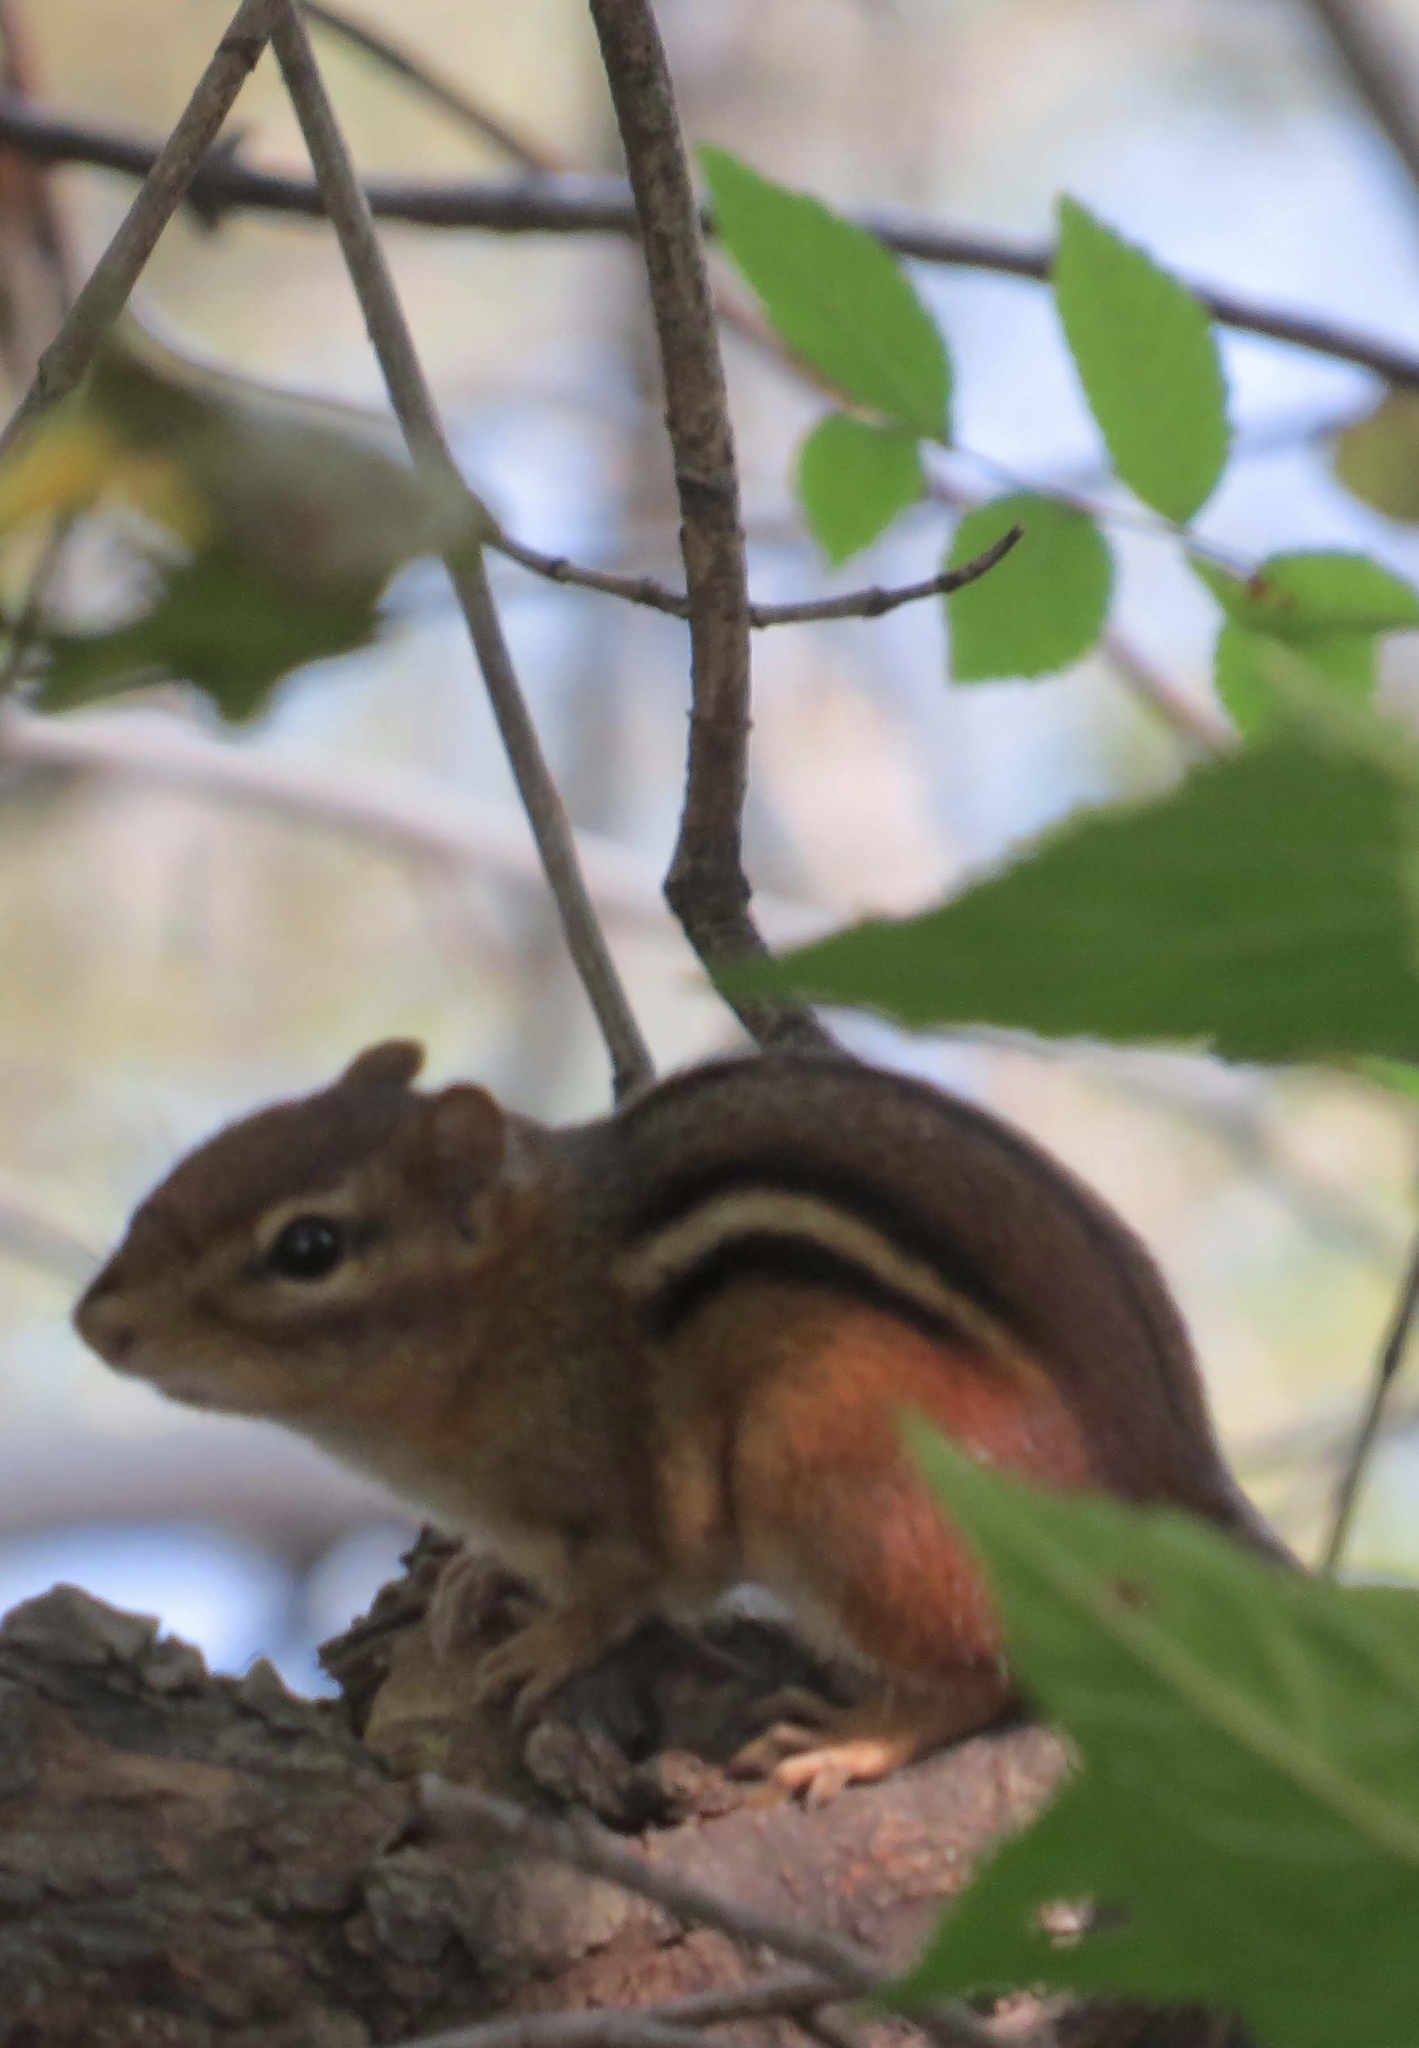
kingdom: Animalia
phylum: Chordata
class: Mammalia
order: Rodentia
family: Sciuridae
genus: Tamias
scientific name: Tamias striatus
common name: Eastern chipmunk
